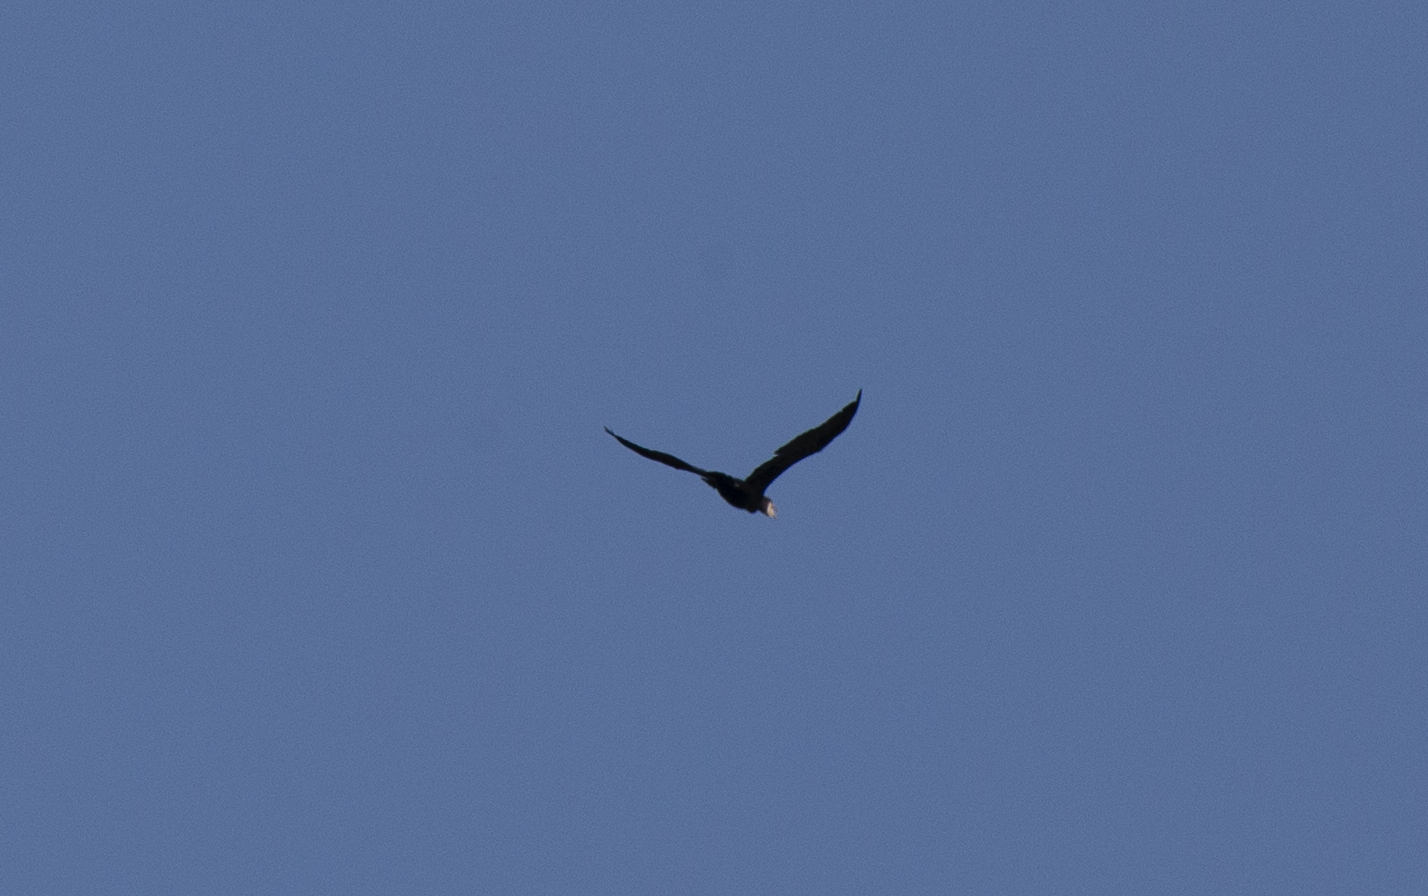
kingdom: Animalia
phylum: Chordata
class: Aves
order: Suliformes
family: Phalacrocoracidae
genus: Phalacrocorax
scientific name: Phalacrocorax carbo
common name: Great cormorant
